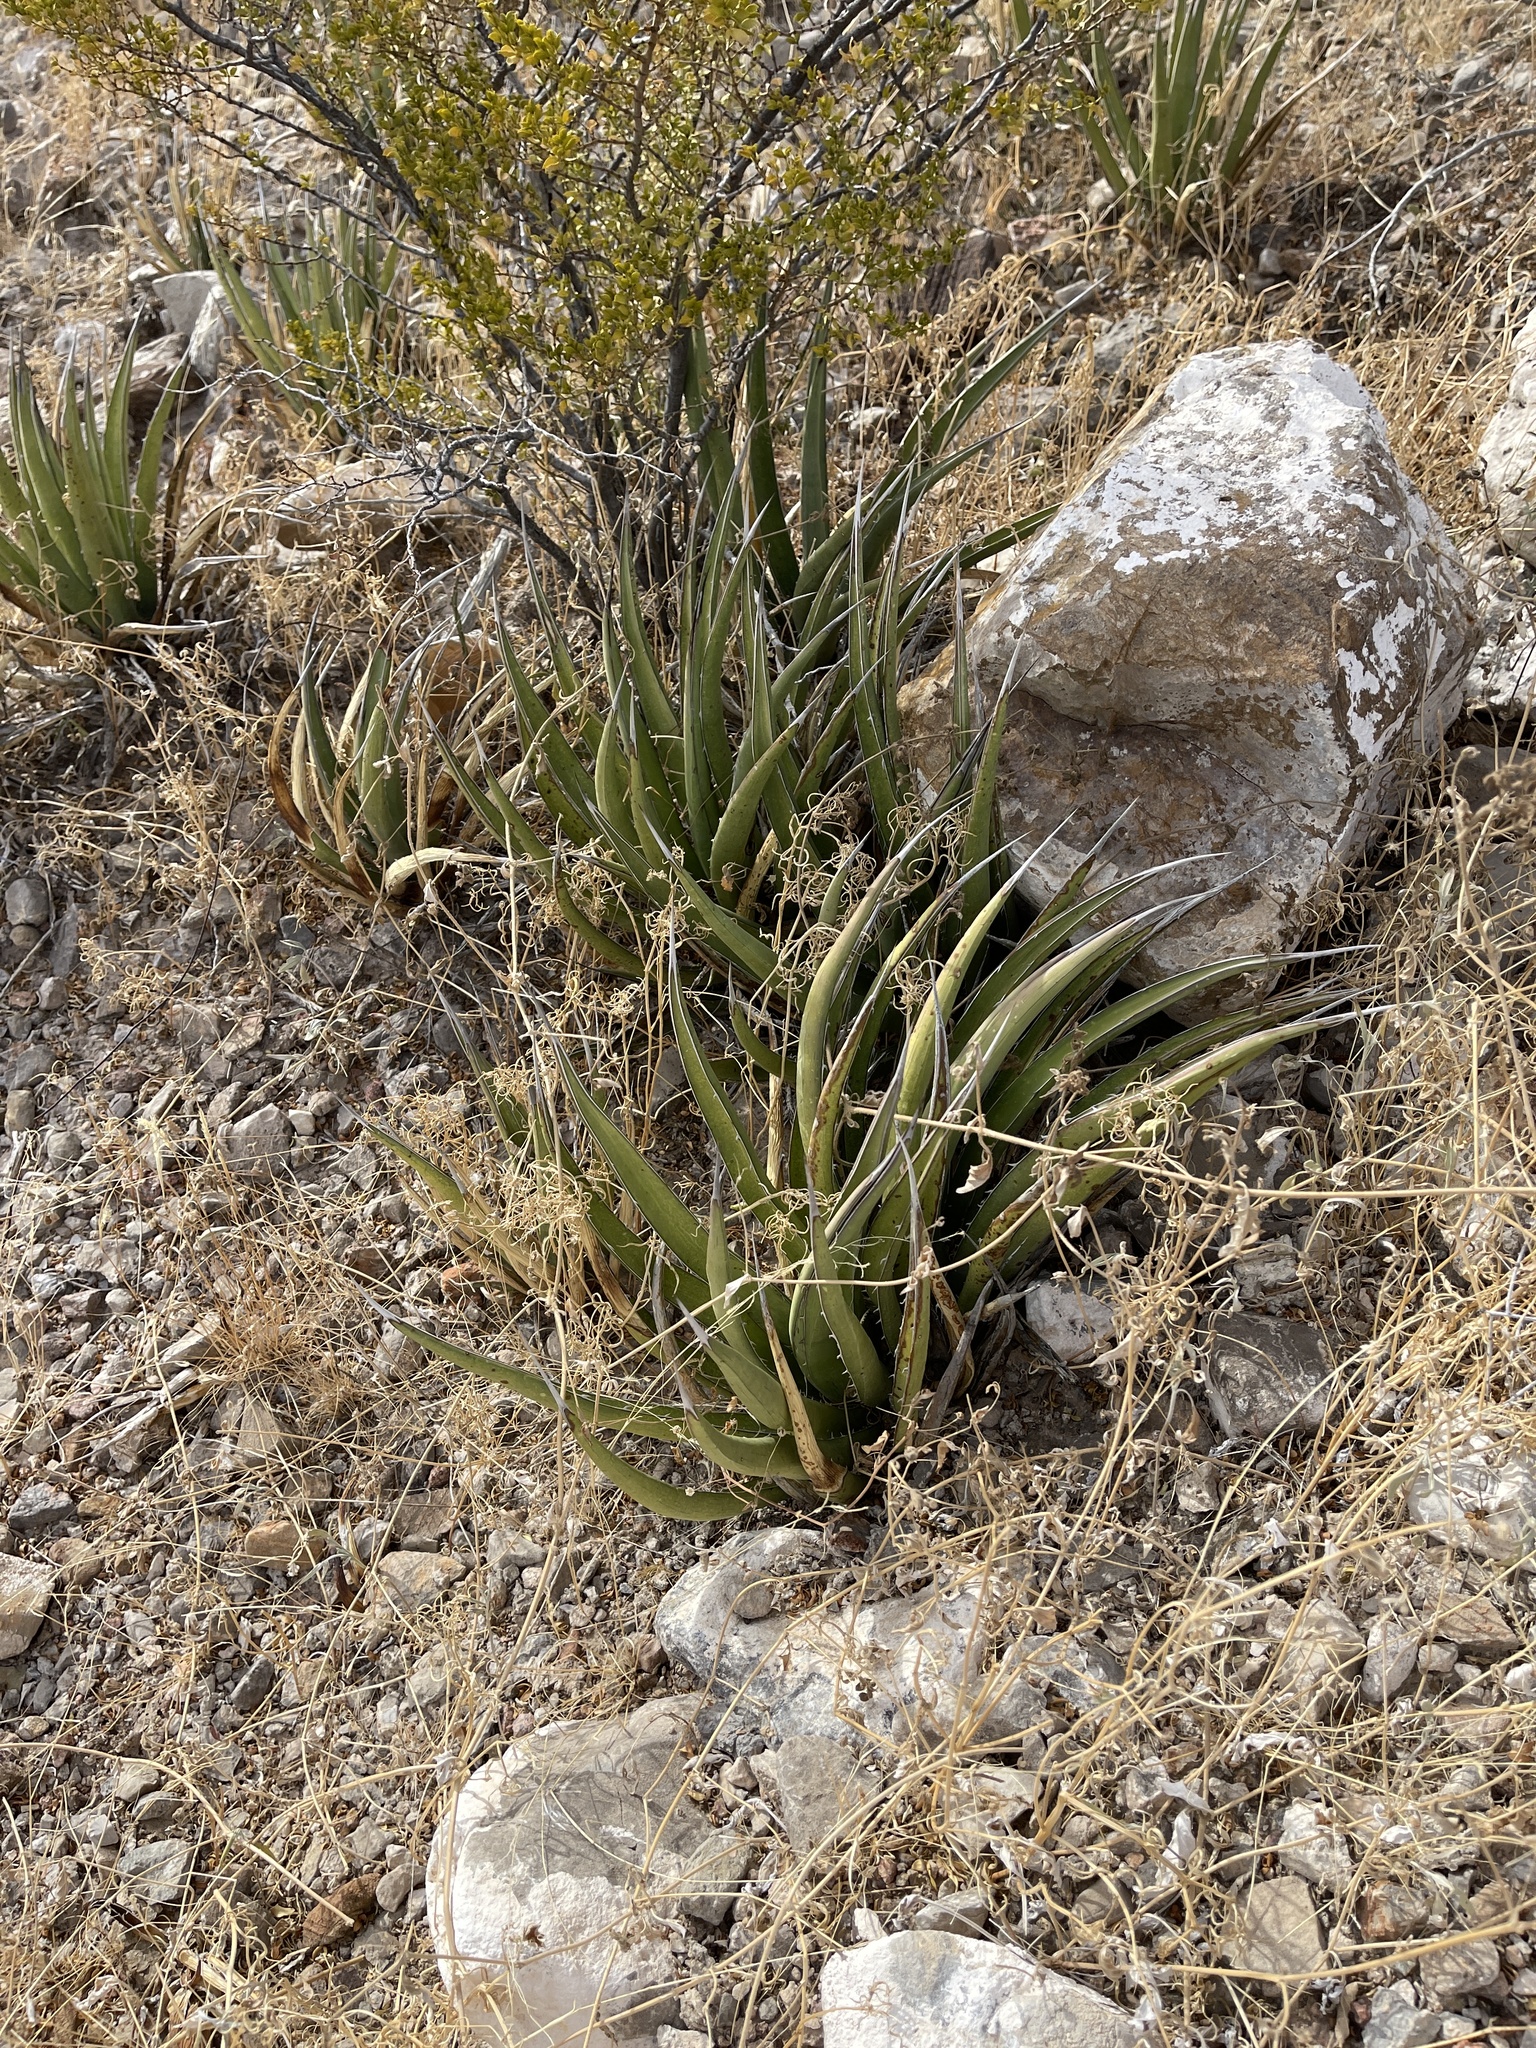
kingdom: Plantae
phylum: Tracheophyta
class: Liliopsida
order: Asparagales
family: Asparagaceae
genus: Agave
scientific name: Agave lechuguilla
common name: Lecheguilla agave
